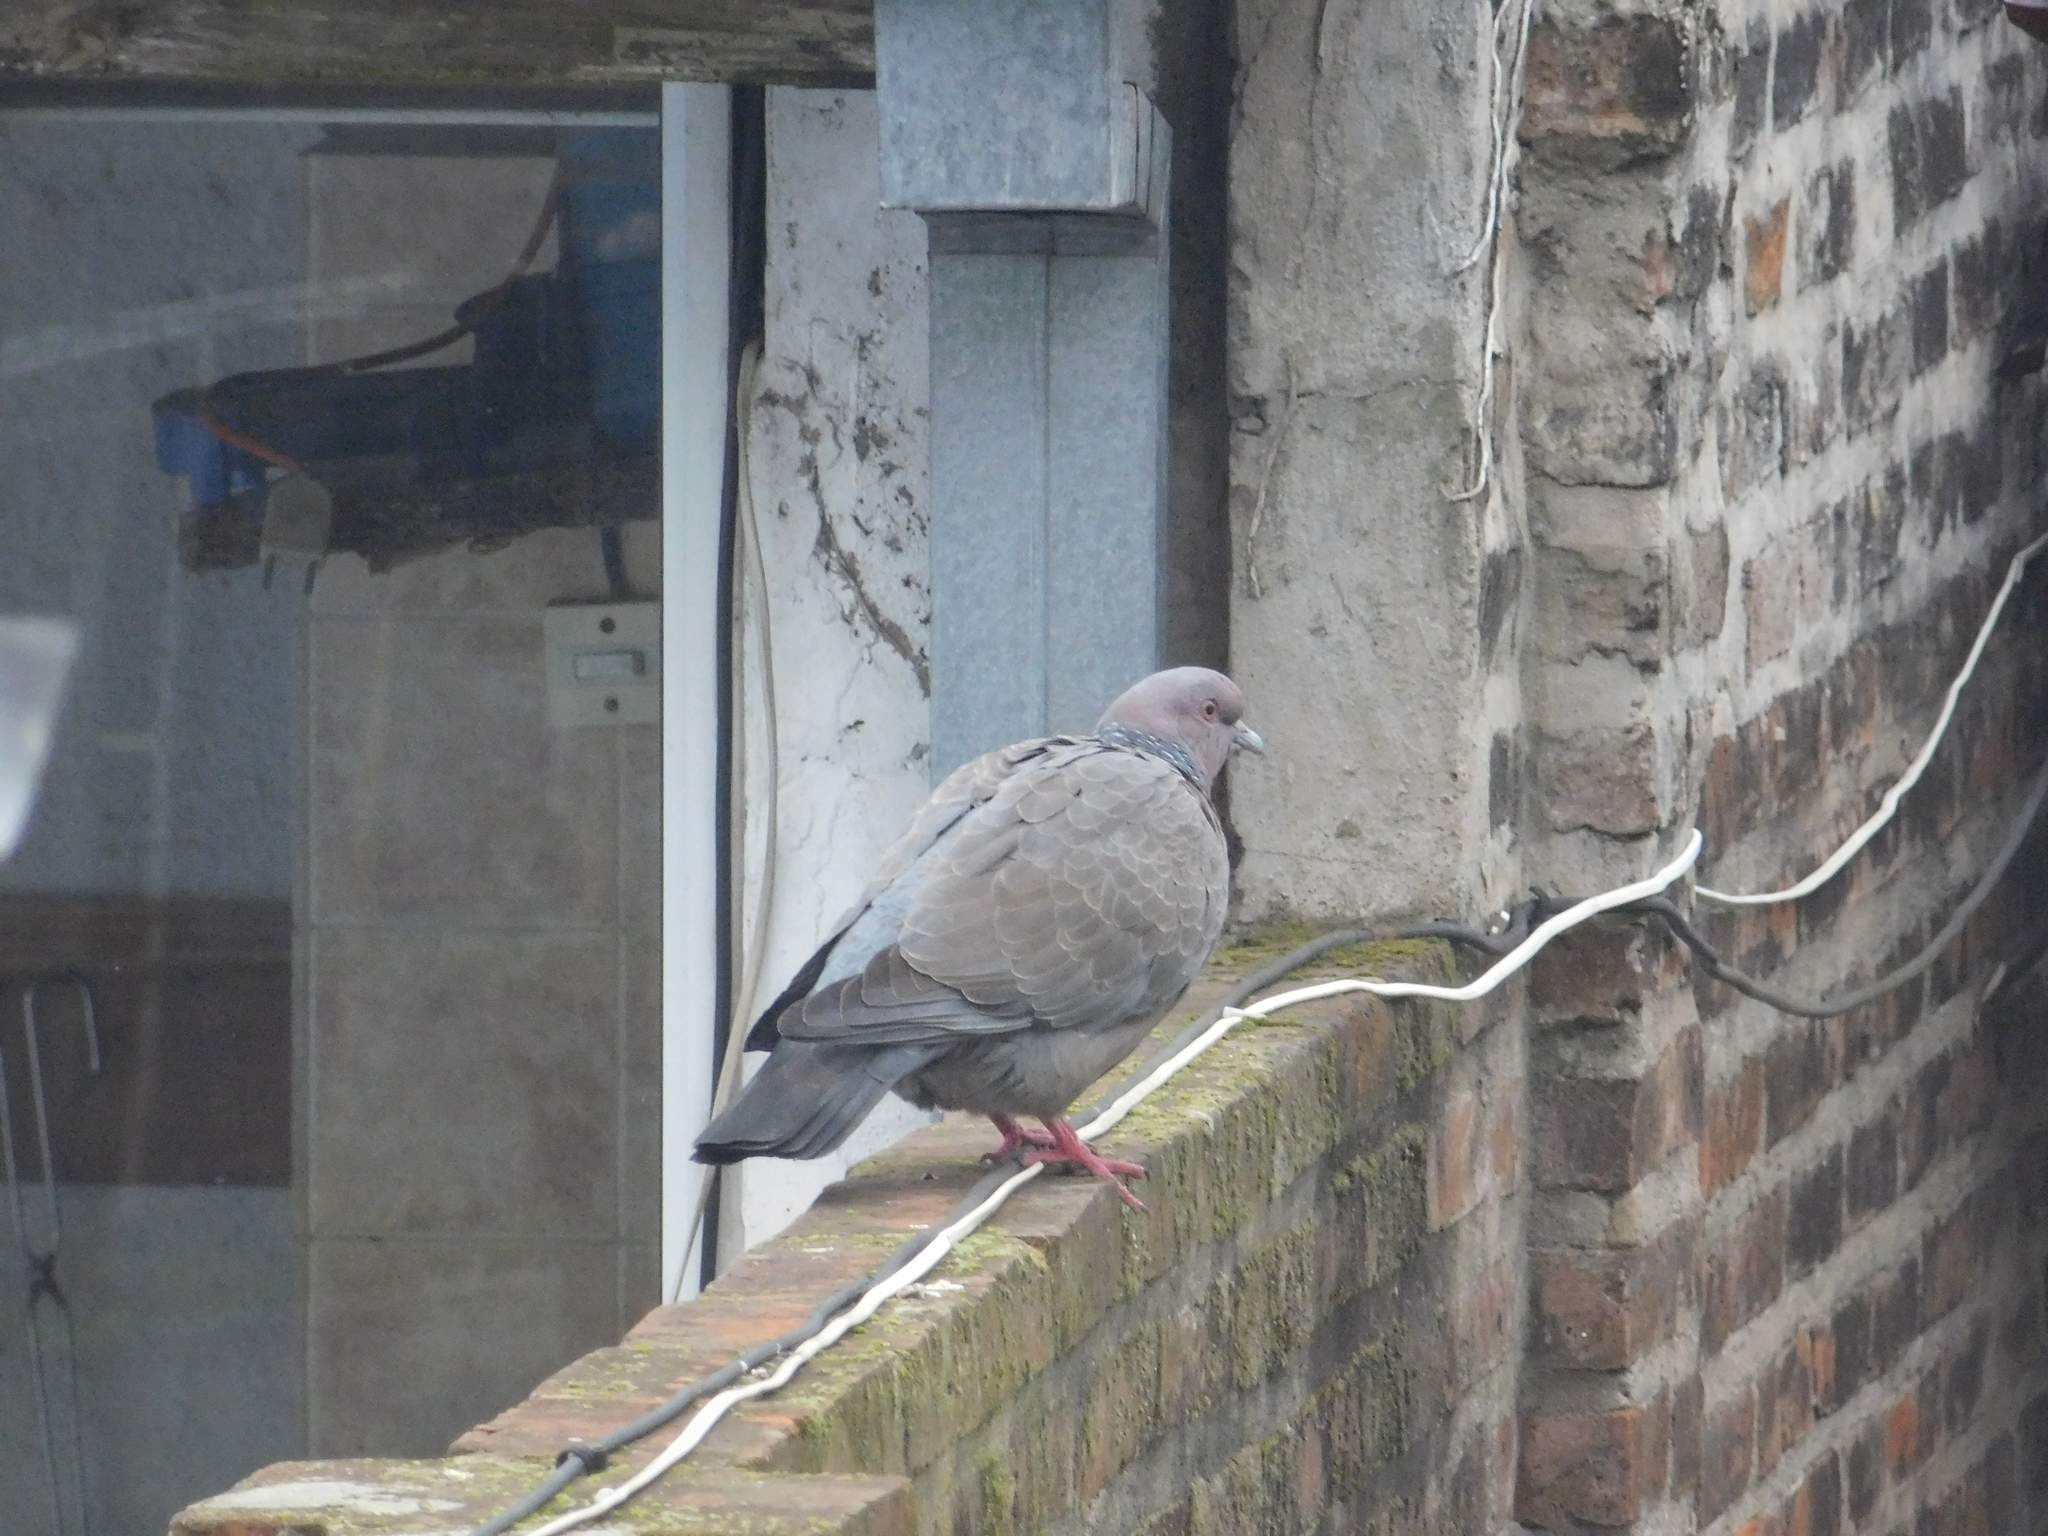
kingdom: Animalia
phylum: Chordata
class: Aves
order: Columbiformes
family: Columbidae
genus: Patagioenas
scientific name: Patagioenas picazuro
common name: Picazuro pigeon
